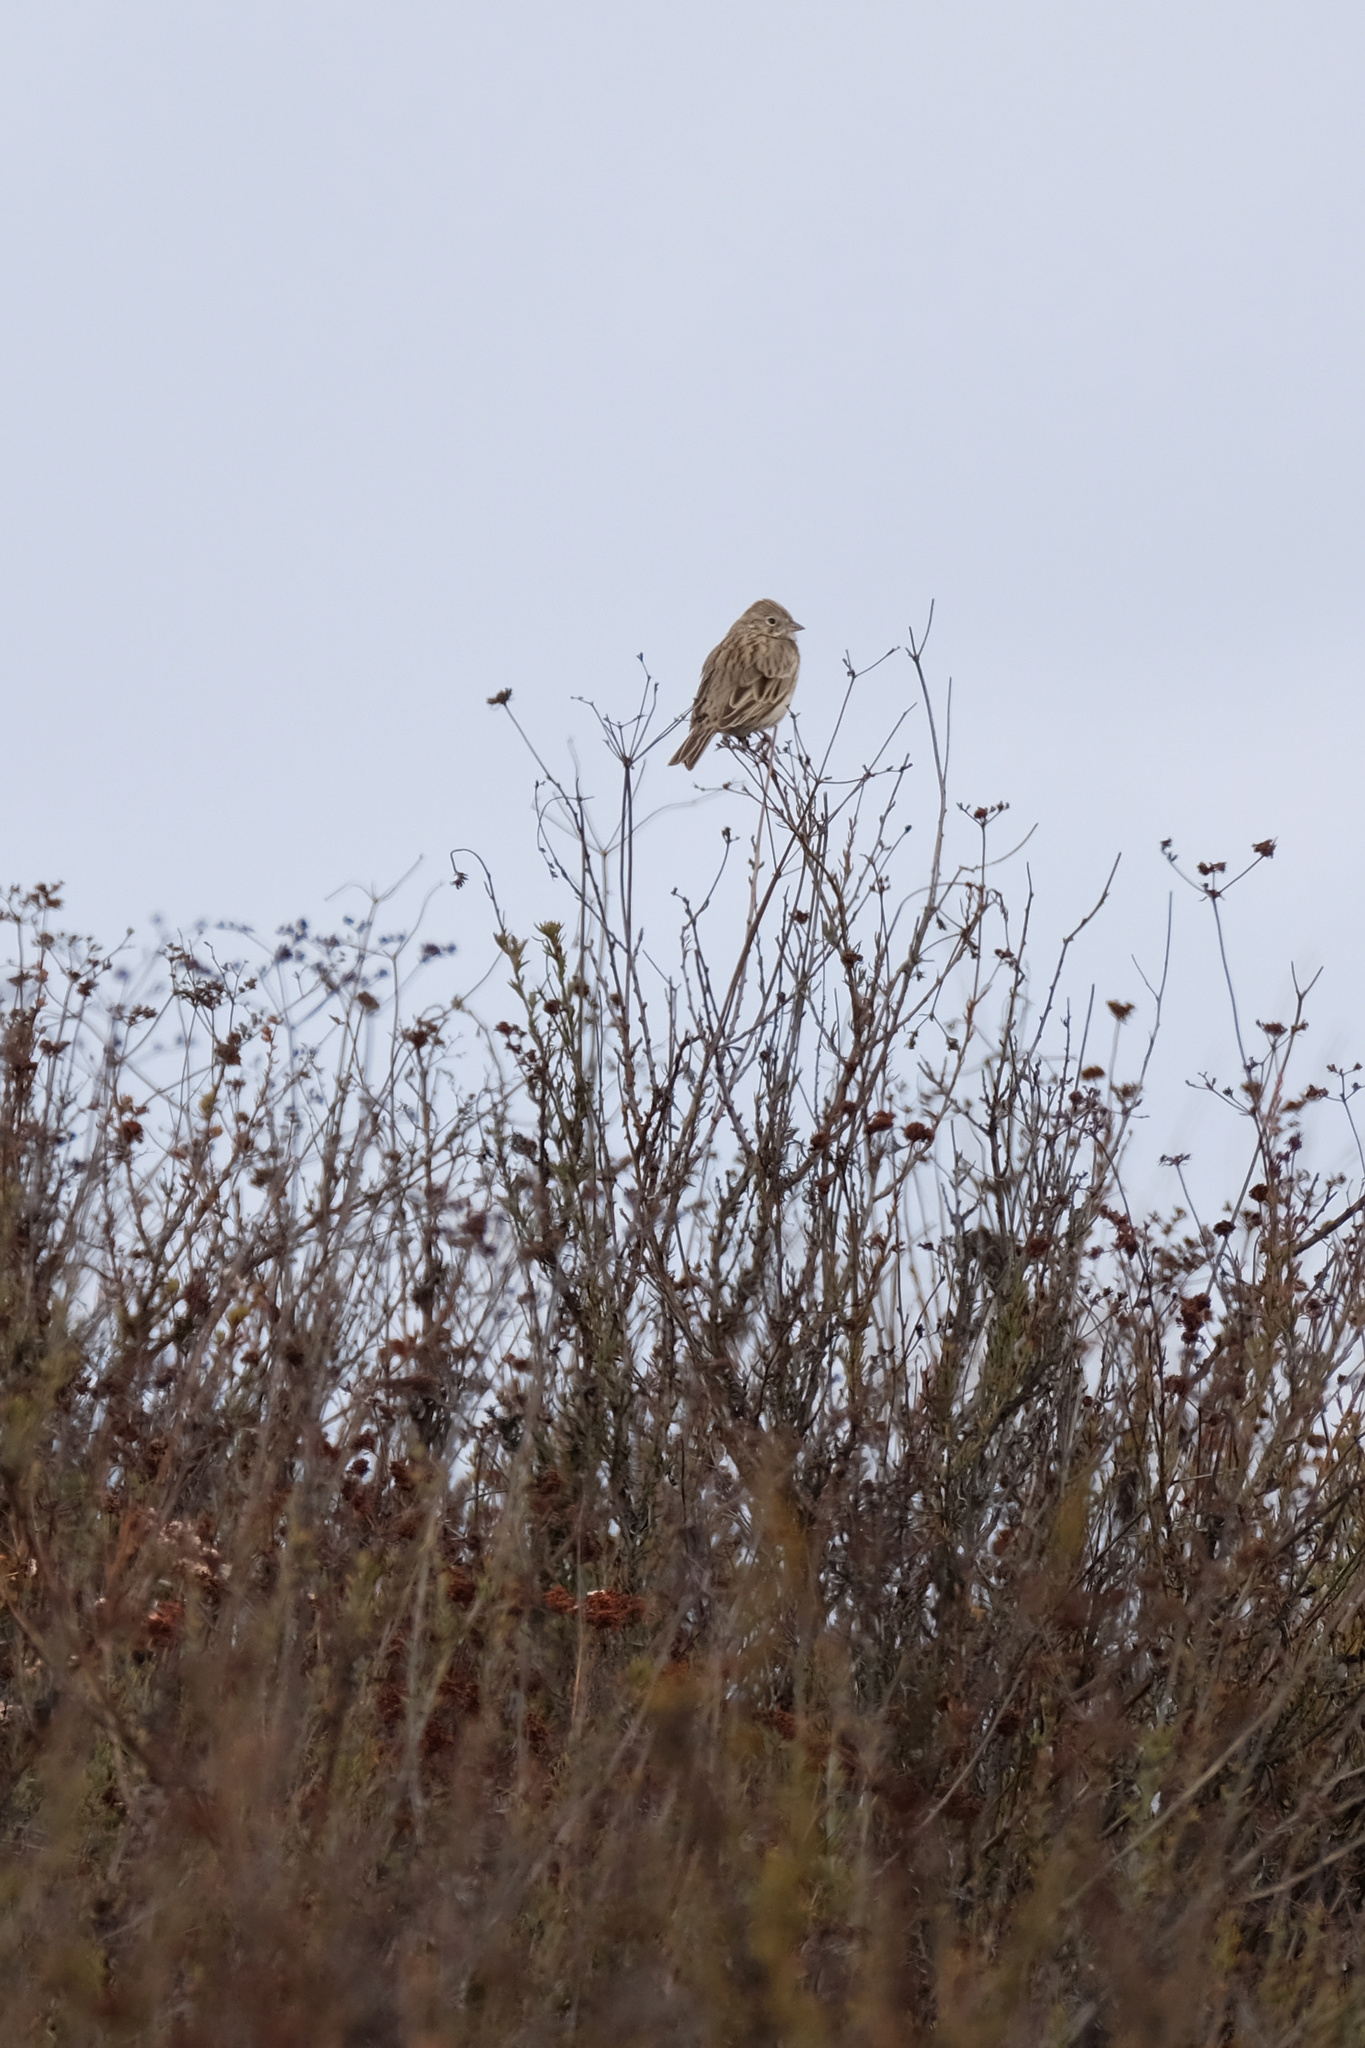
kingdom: Animalia
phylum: Chordata
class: Aves
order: Passeriformes
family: Passerellidae
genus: Pooecetes
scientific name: Pooecetes gramineus
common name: Vesper sparrow
